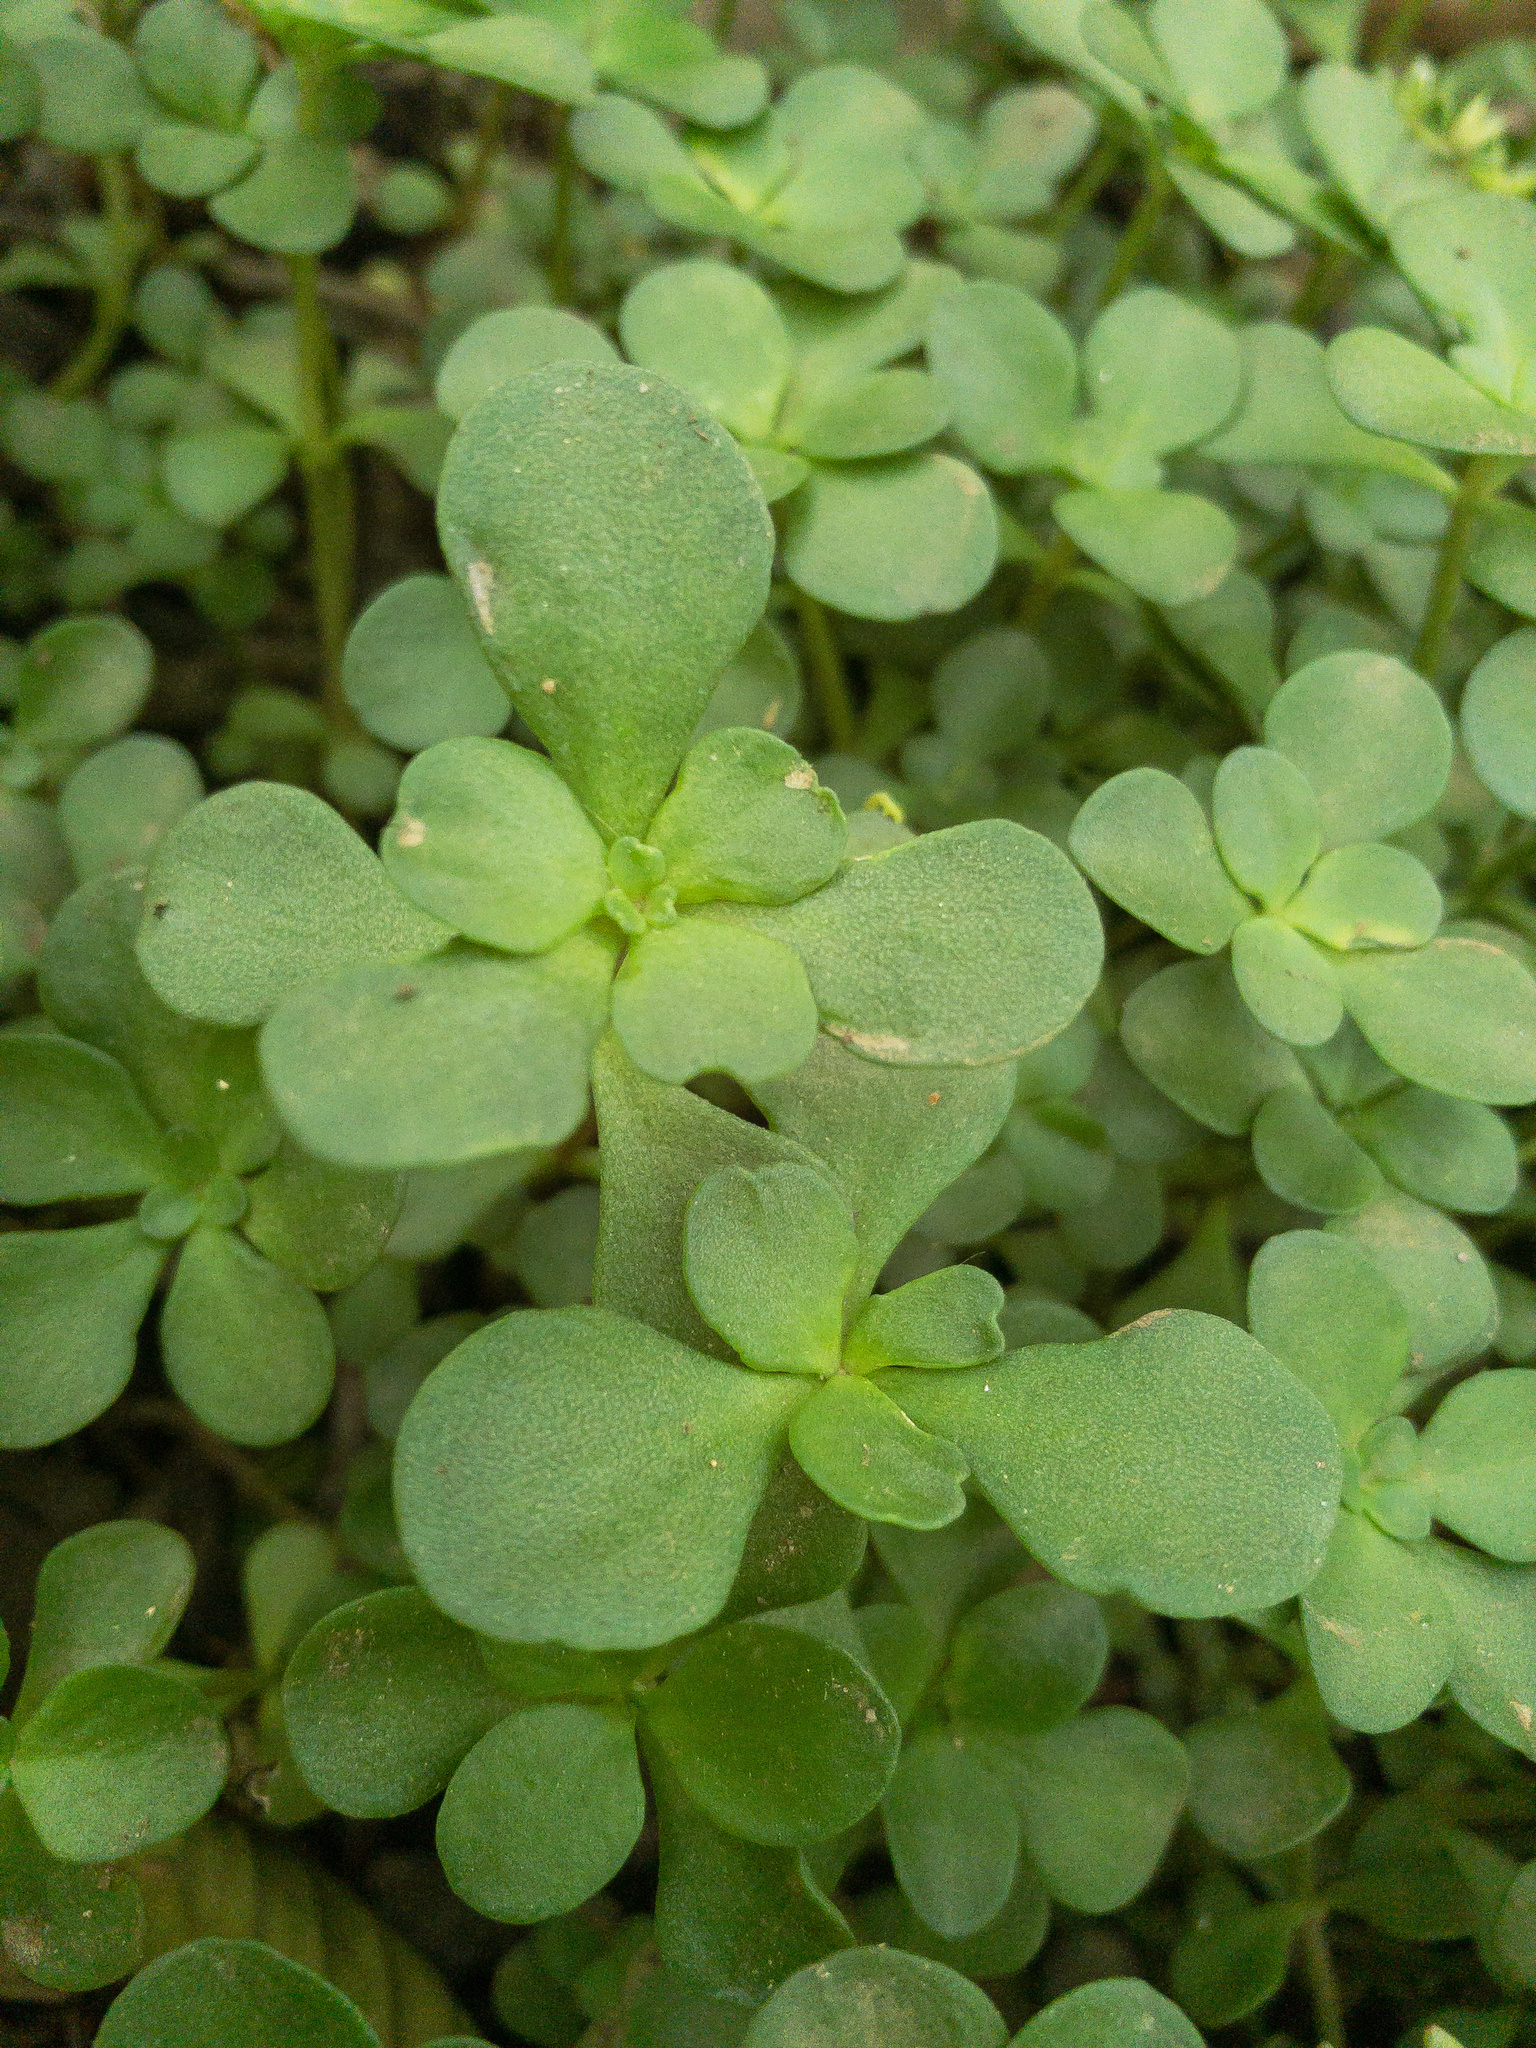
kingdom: Plantae
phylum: Tracheophyta
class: Magnoliopsida
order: Saxifragales
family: Crassulaceae
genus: Sedum
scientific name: Sedum ternatum
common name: Wild stonecrop
